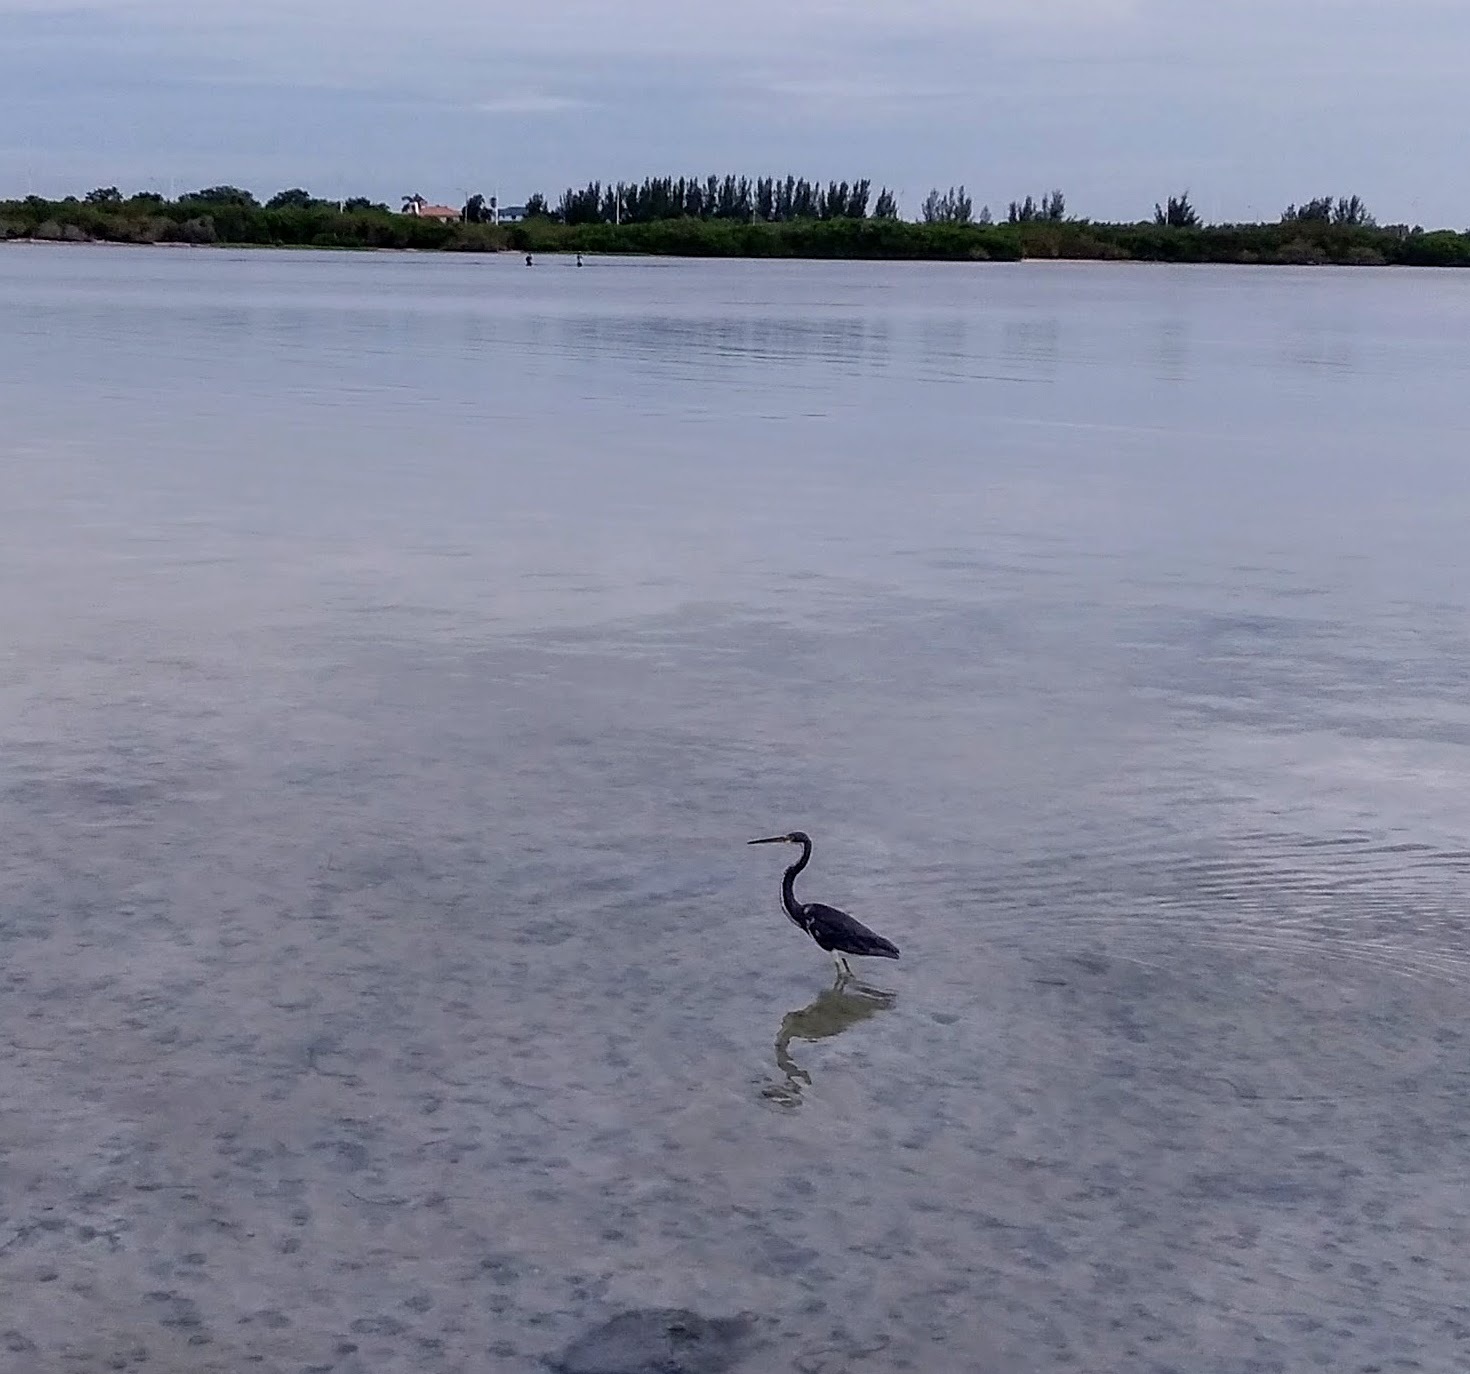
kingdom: Animalia
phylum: Chordata
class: Aves
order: Pelecaniformes
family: Ardeidae
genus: Egretta
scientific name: Egretta tricolor
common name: Tricolored heron
